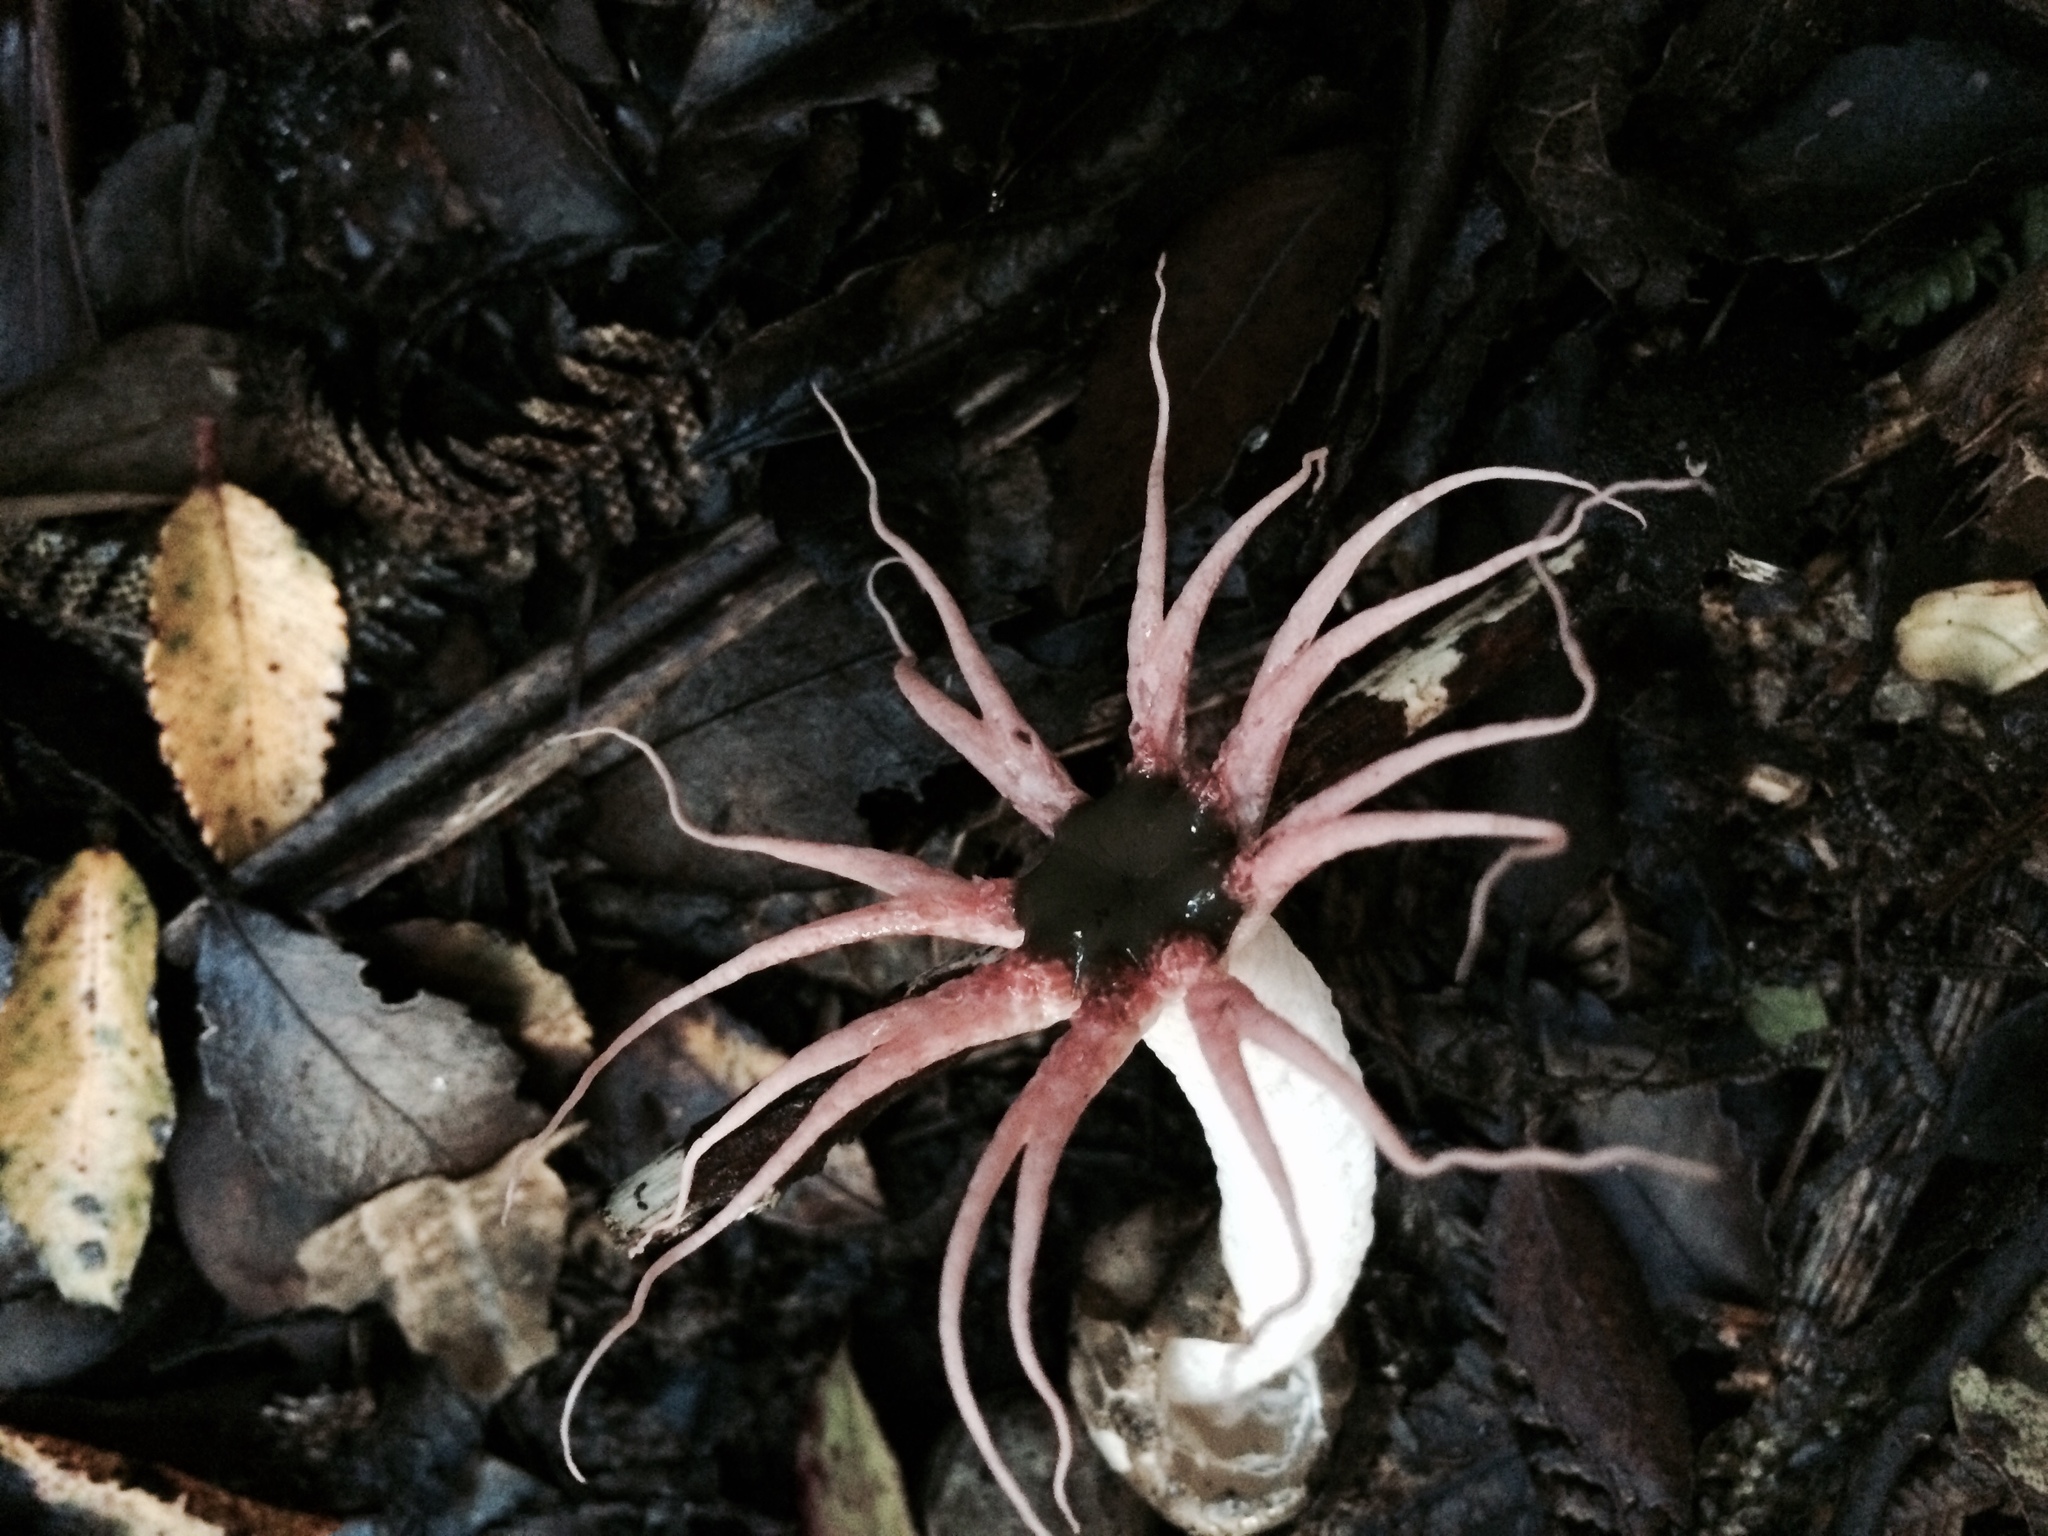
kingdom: Fungi
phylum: Basidiomycota
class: Agaricomycetes
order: Phallales
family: Phallaceae
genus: Aseroe
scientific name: Aseroe rubra
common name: Starfish fungus
